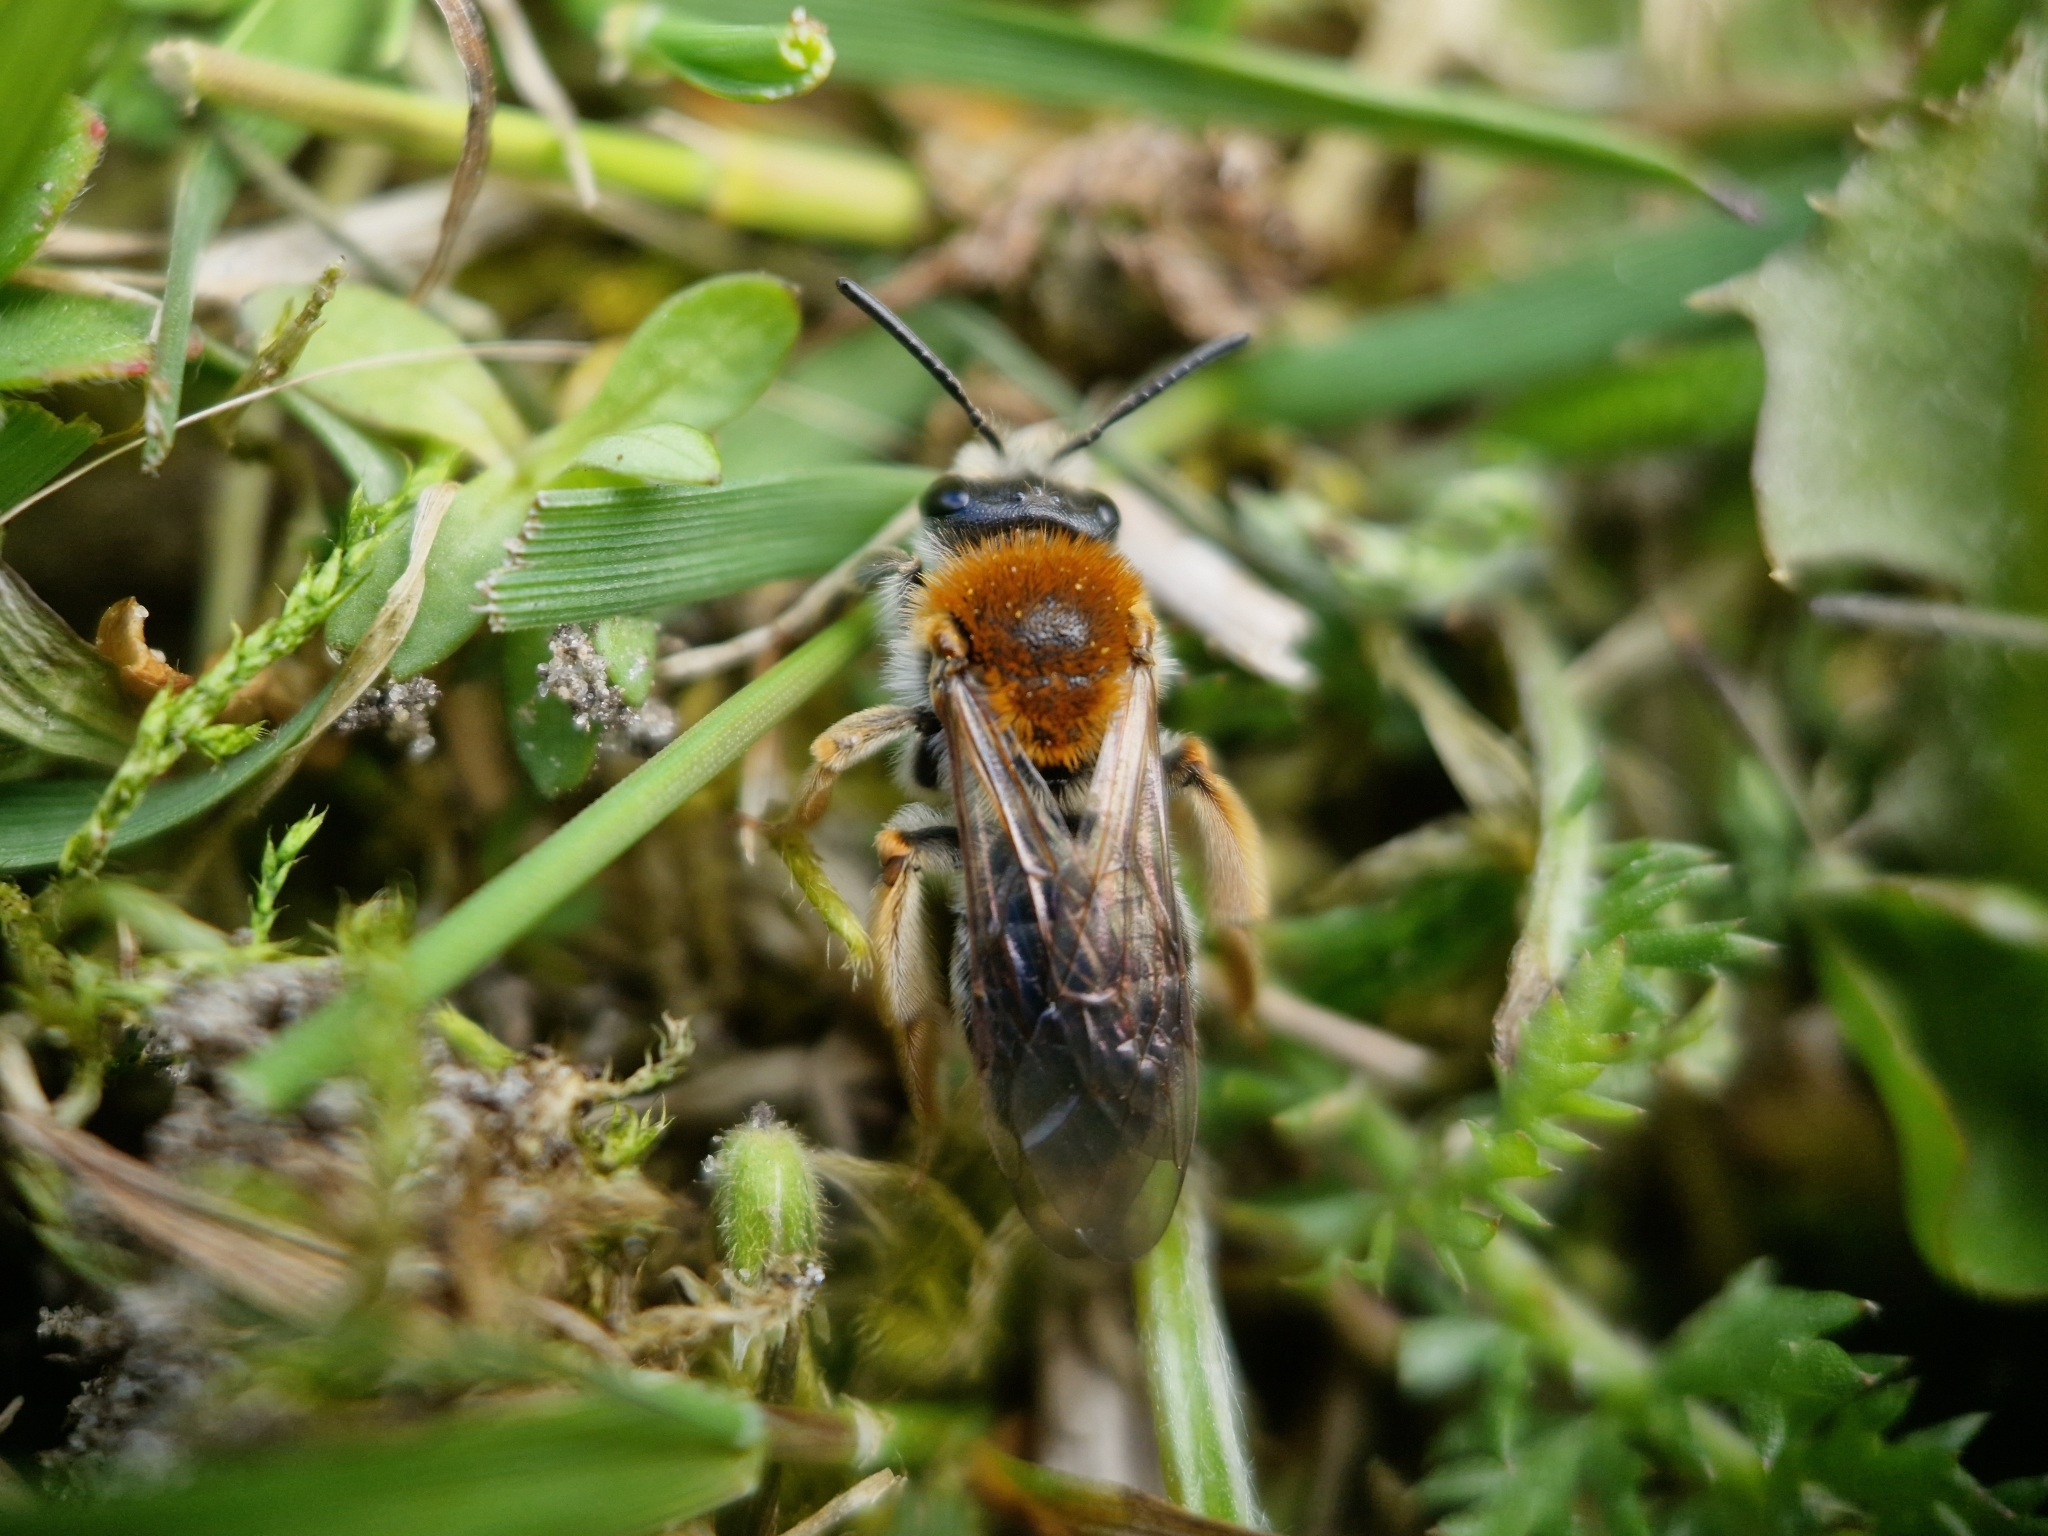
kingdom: Animalia
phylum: Arthropoda
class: Insecta
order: Hymenoptera
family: Andrenidae
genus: Andrena
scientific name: Andrena haemorrhoa
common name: Early mining bee
